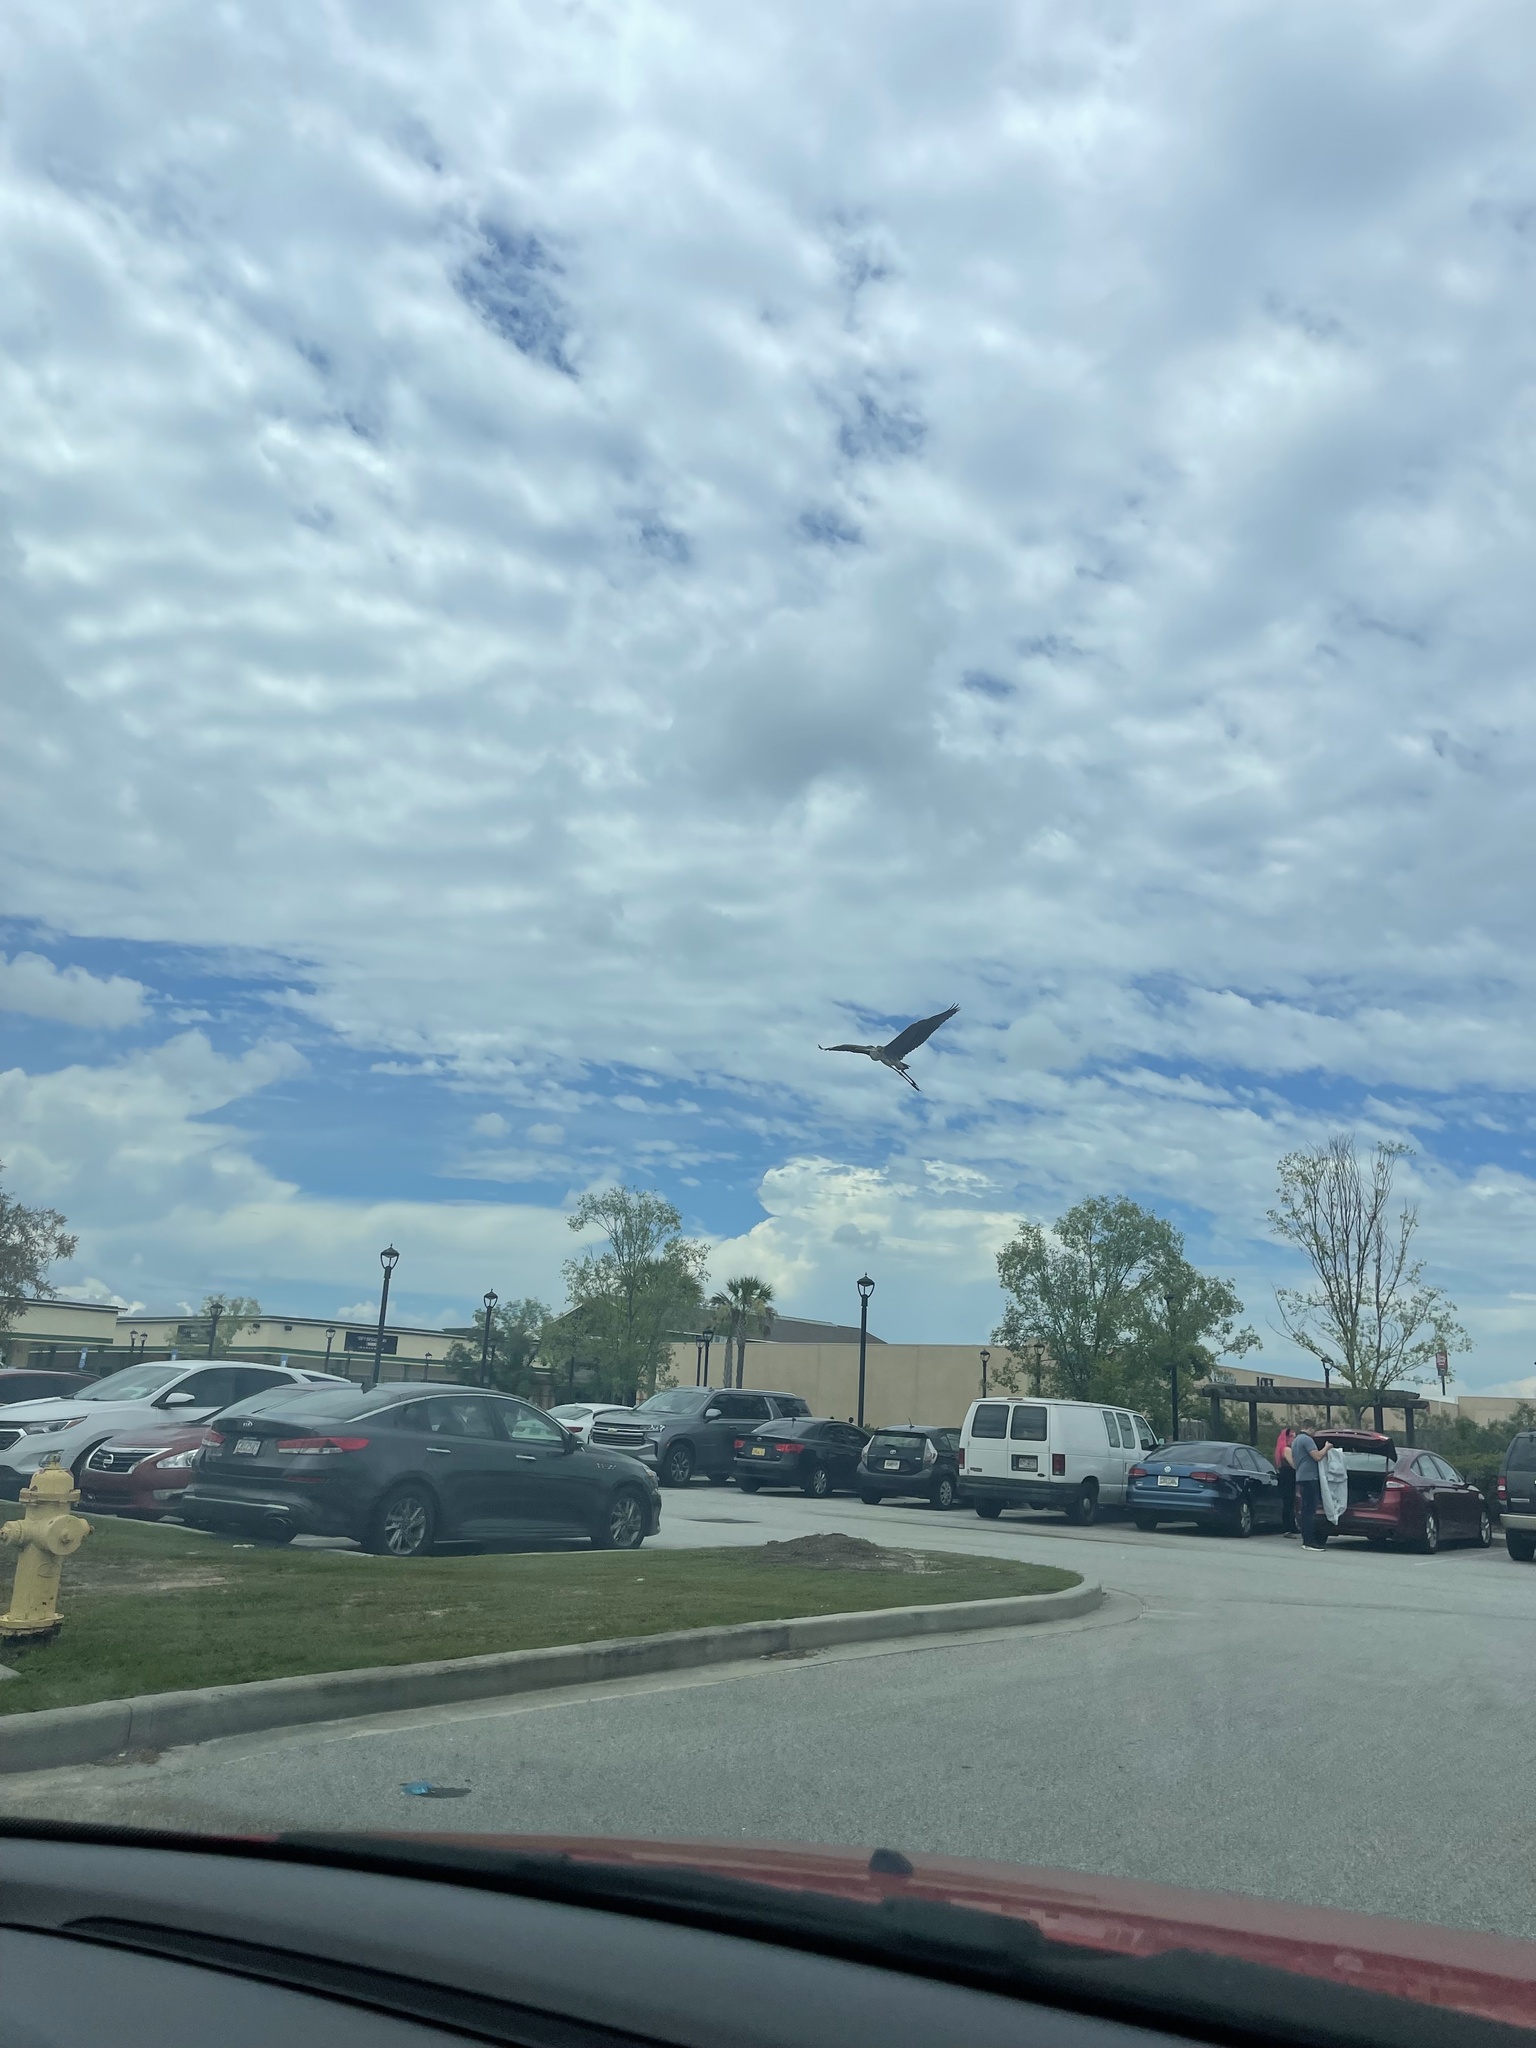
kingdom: Animalia
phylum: Chordata
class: Aves
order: Pelecaniformes
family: Ardeidae
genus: Ardea
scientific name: Ardea herodias
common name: Great blue heron
